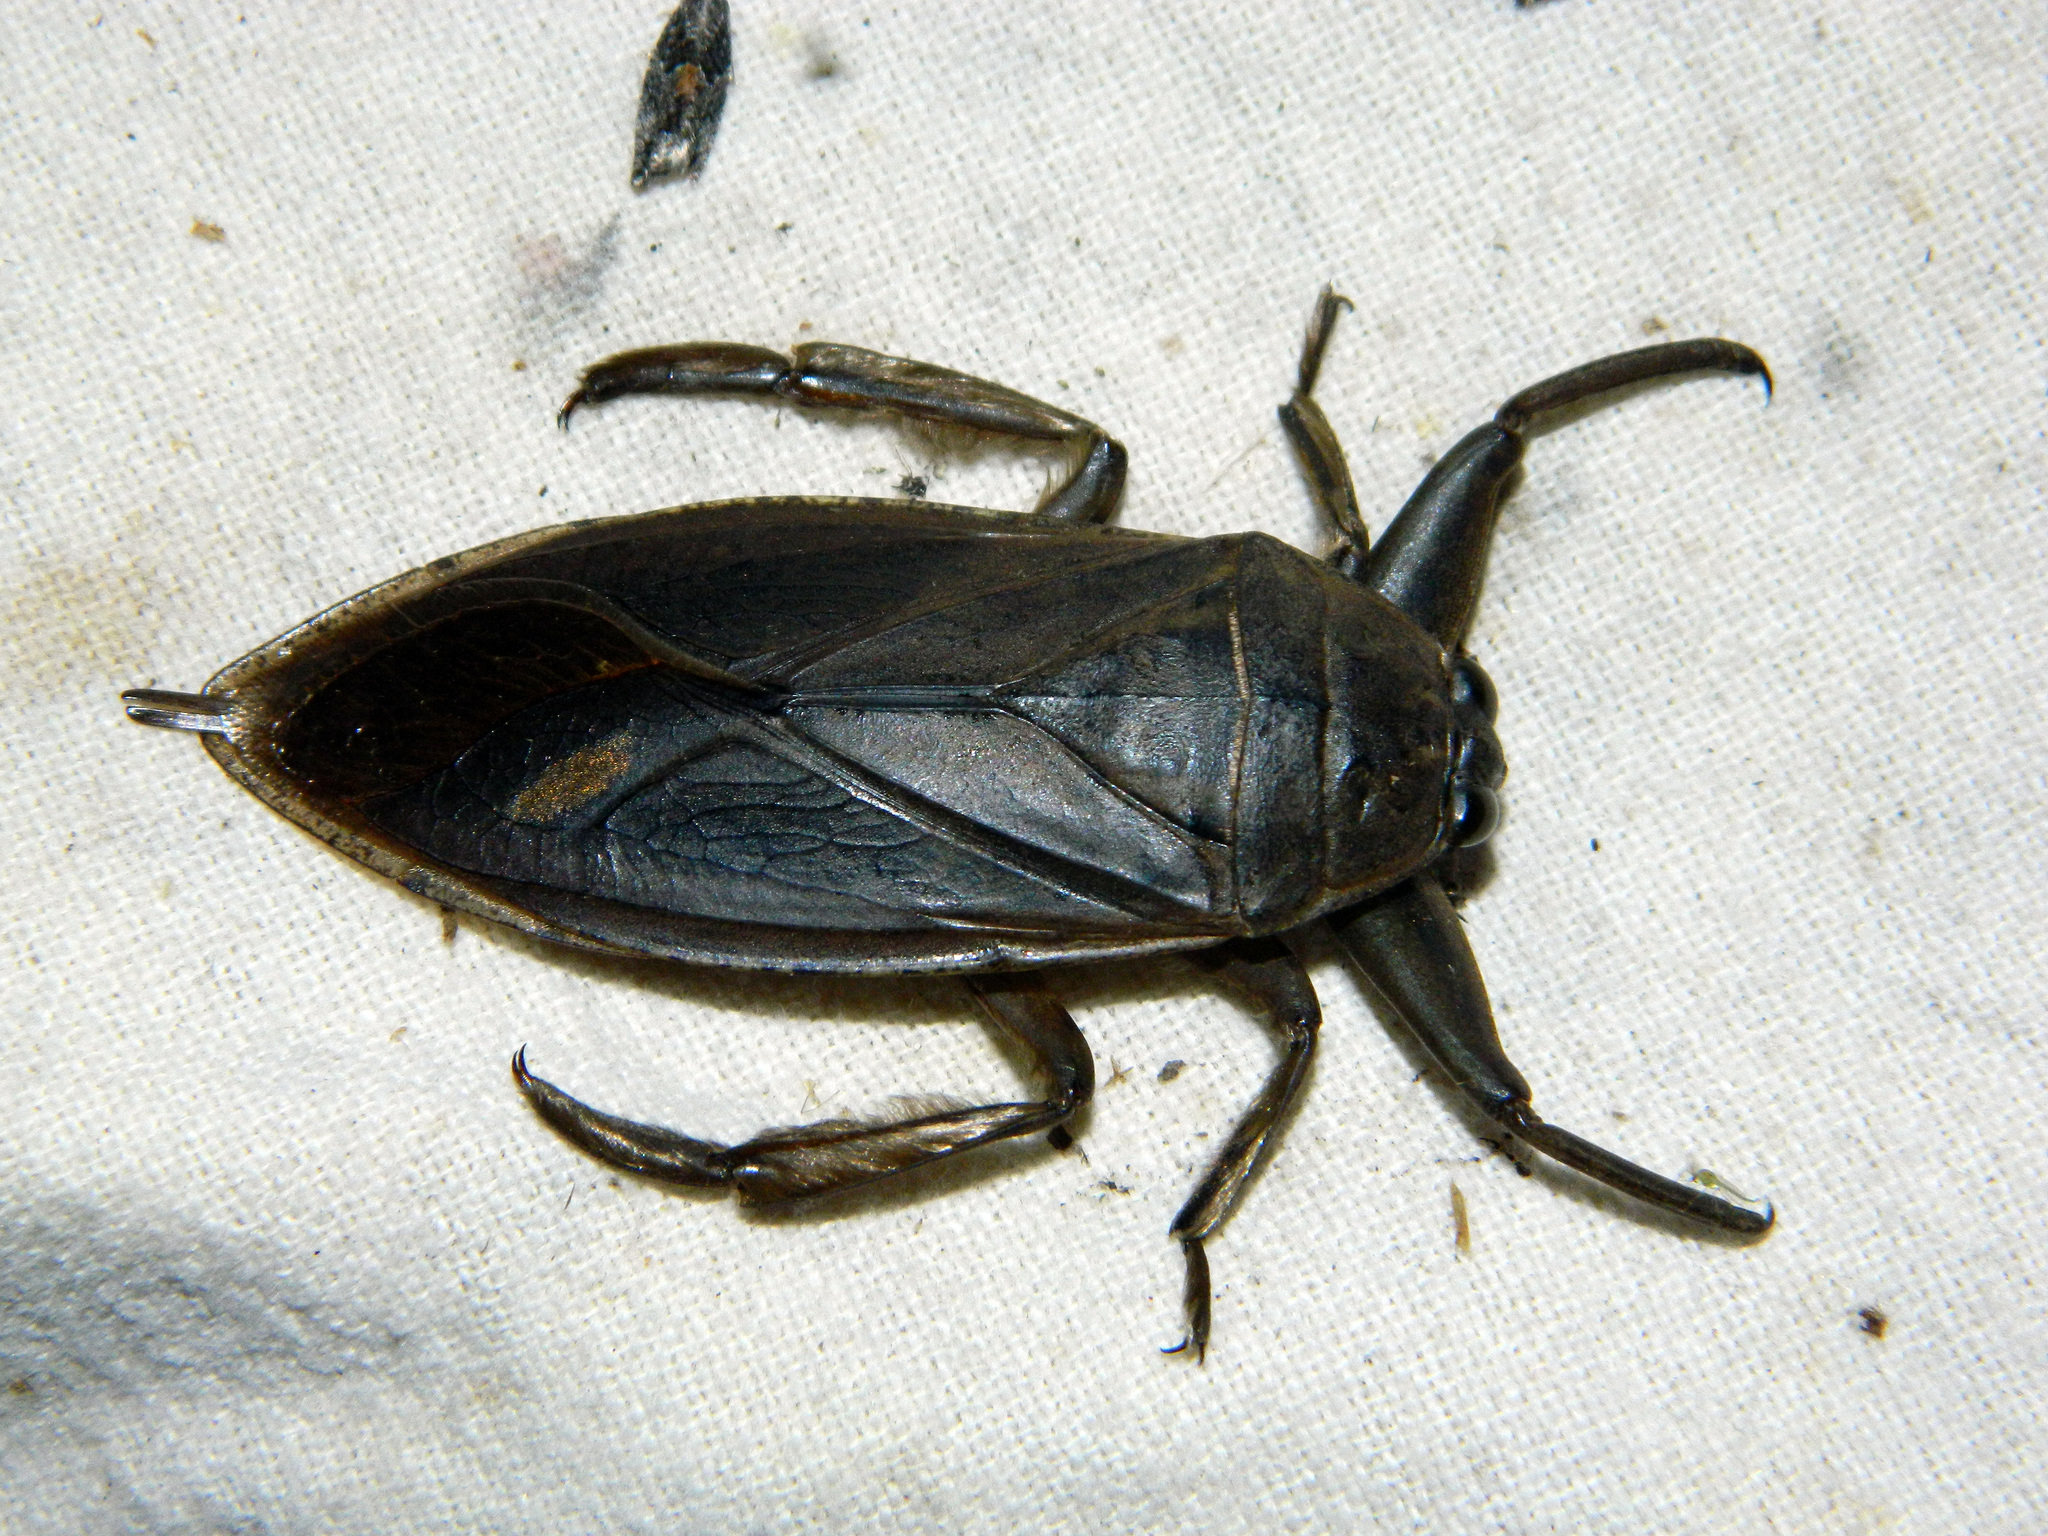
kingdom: Animalia
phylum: Arthropoda
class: Insecta
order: Hemiptera
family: Belostomatidae
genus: Lethocerus
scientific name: Lethocerus americanus
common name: Giant water bug
